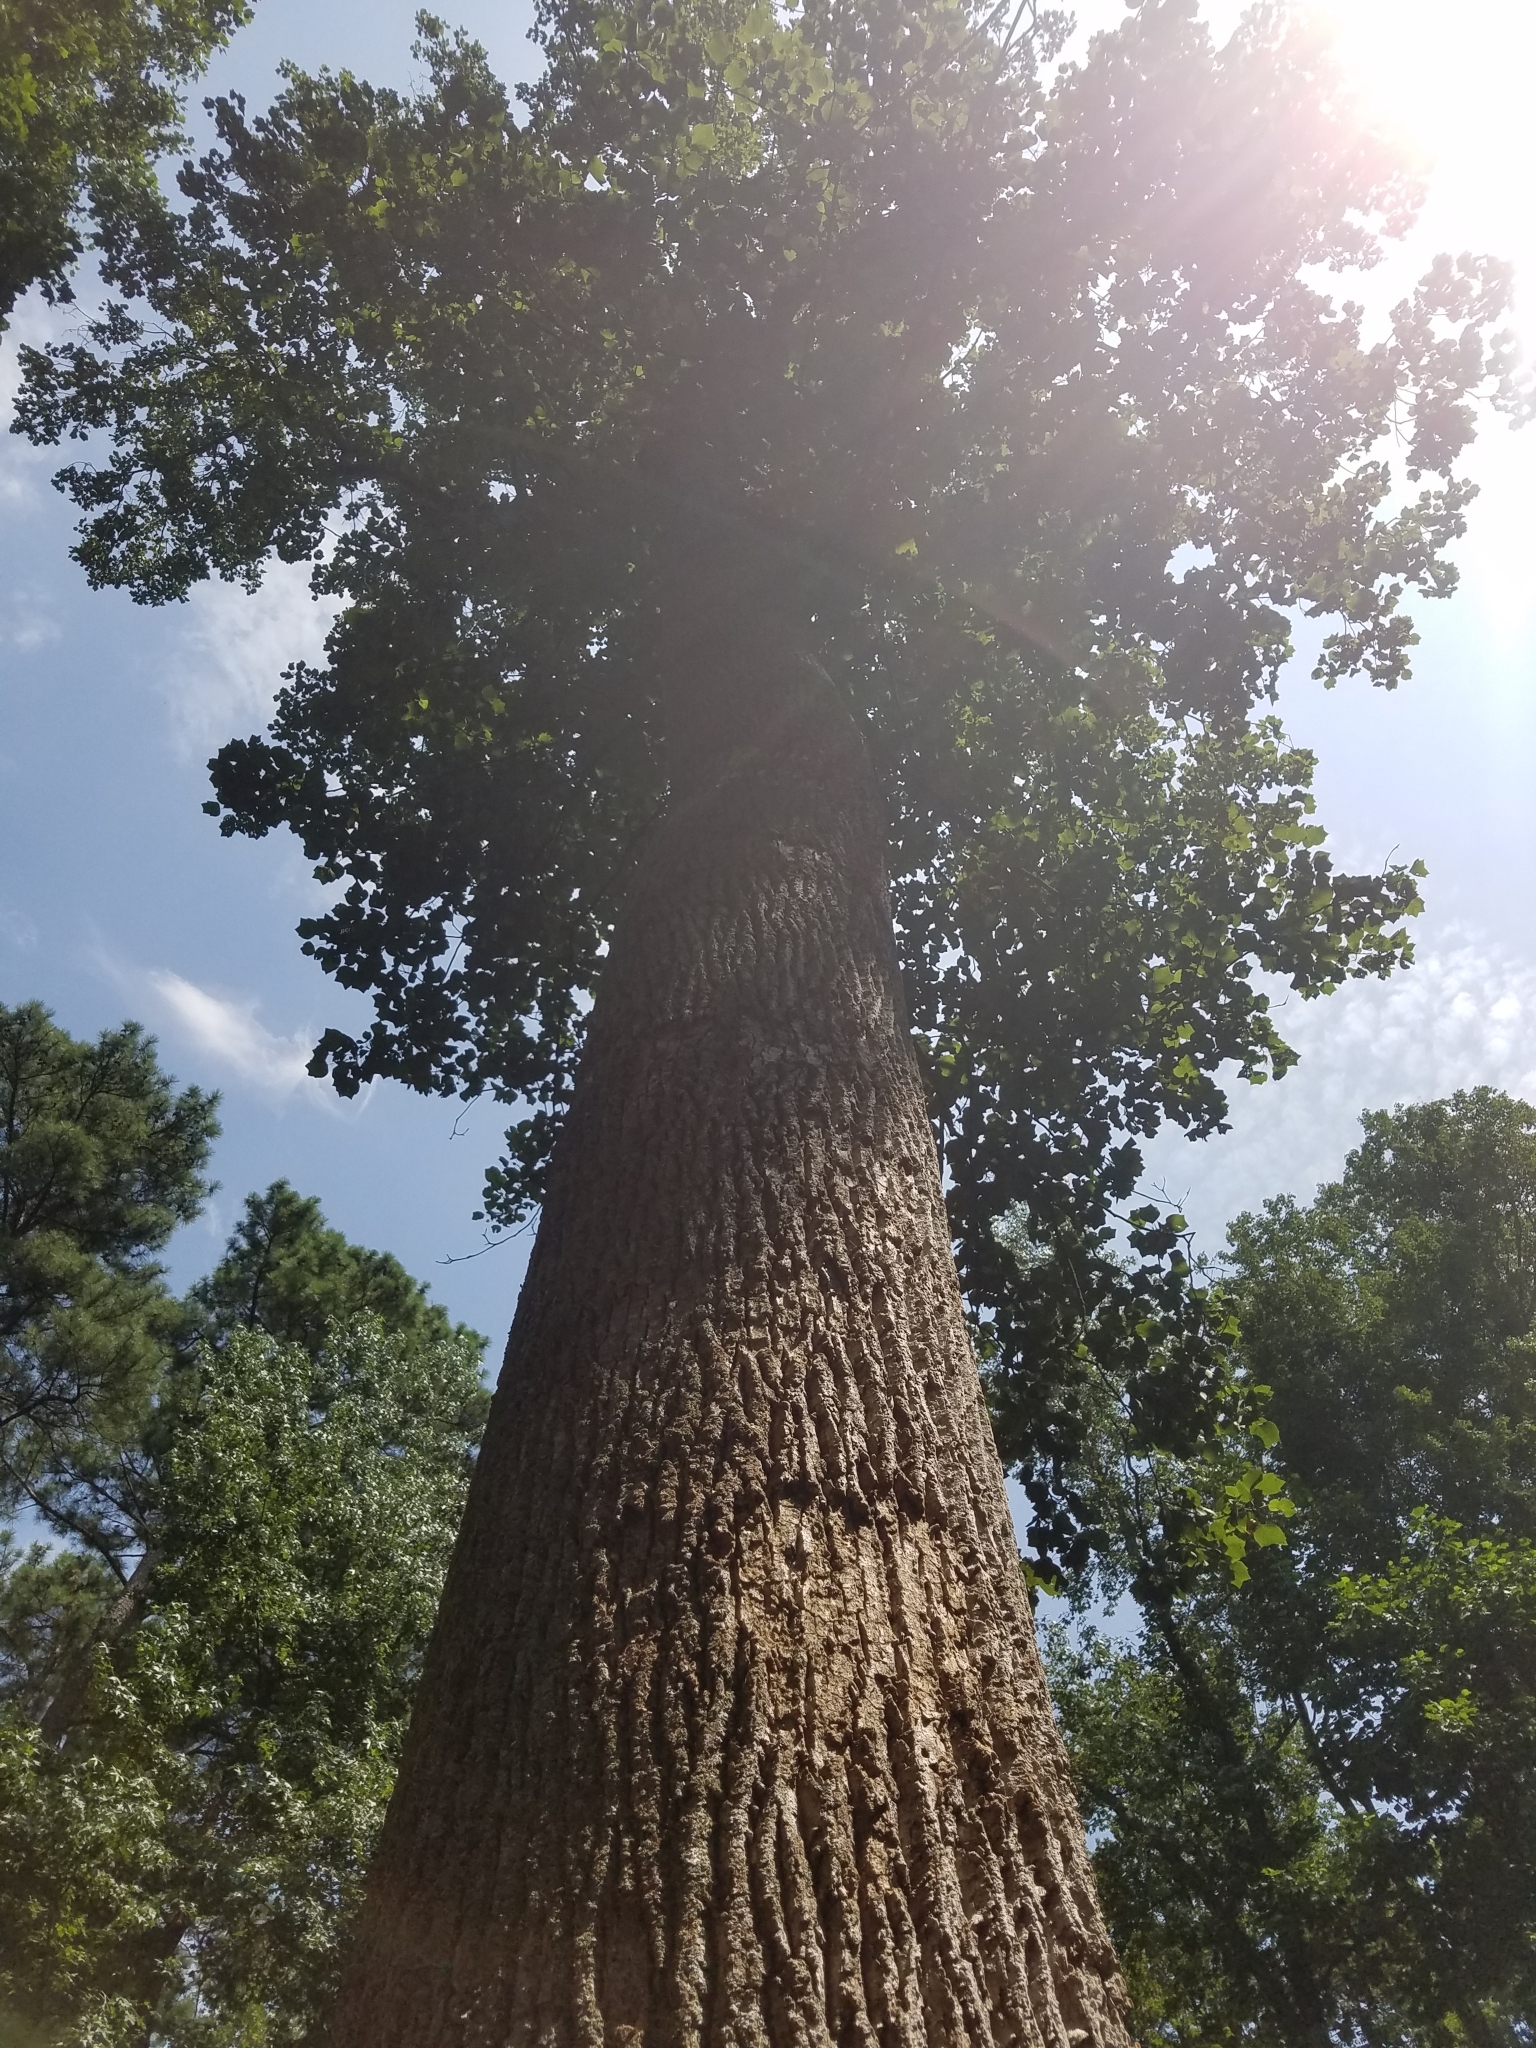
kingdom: Plantae
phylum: Tracheophyta
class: Magnoliopsida
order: Magnoliales
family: Magnoliaceae
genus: Liriodendron
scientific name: Liriodendron tulipifera
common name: Tulip tree
